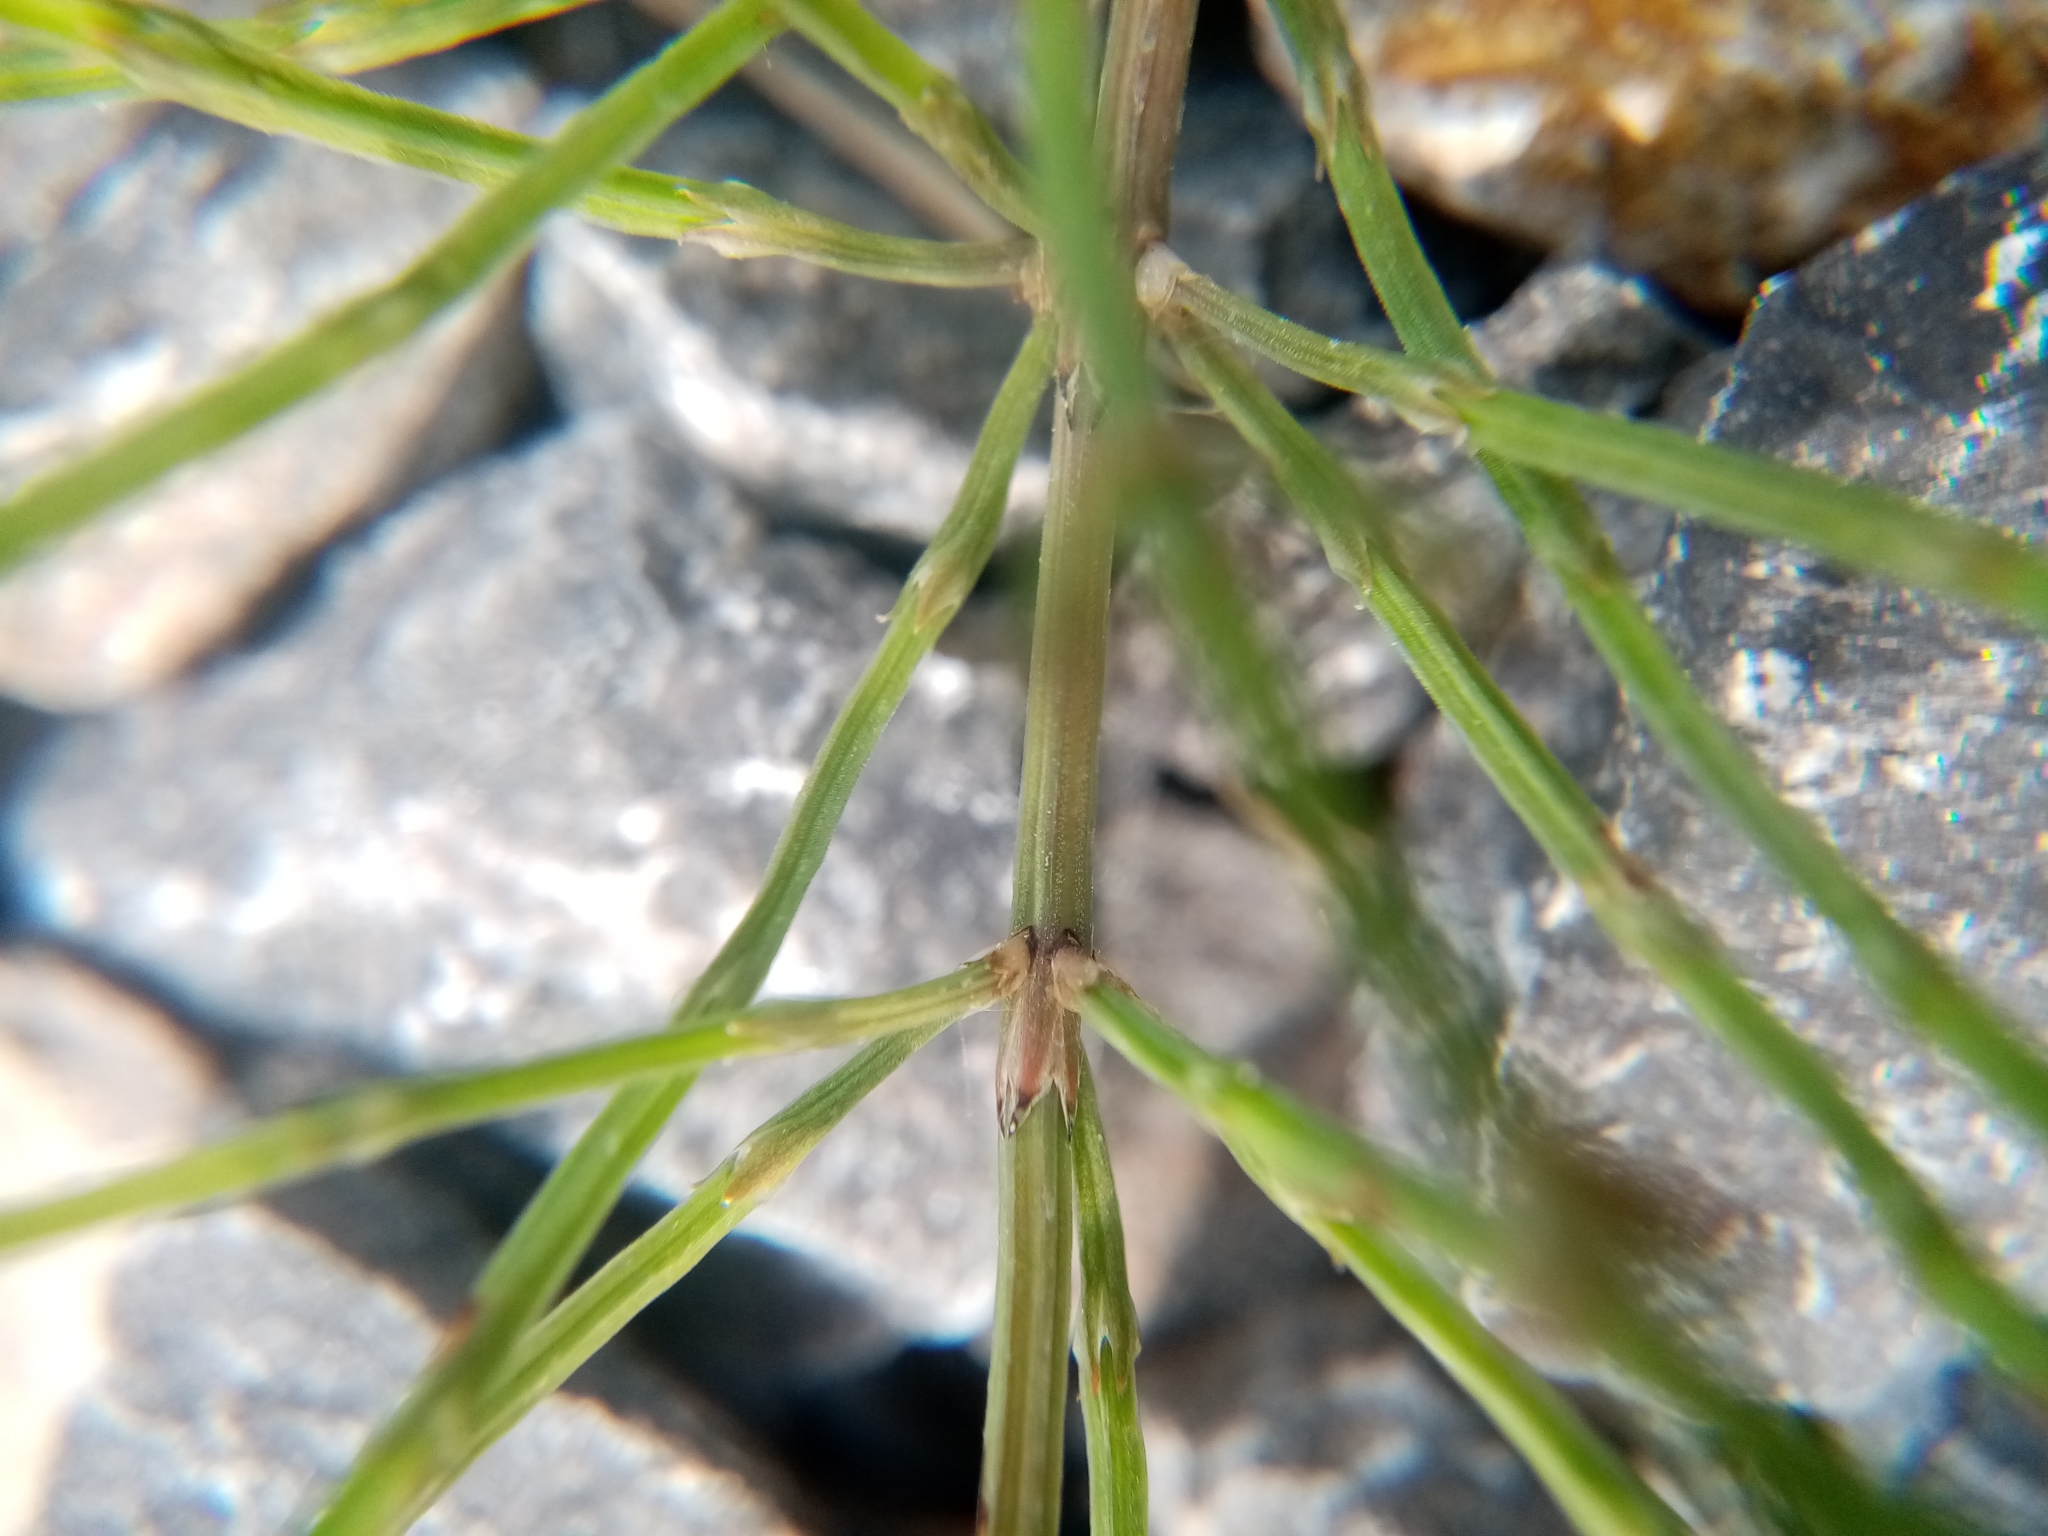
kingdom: Plantae
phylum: Tracheophyta
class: Polypodiopsida
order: Equisetales
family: Equisetaceae
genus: Equisetum
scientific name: Equisetum arvense
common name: Field horsetail
